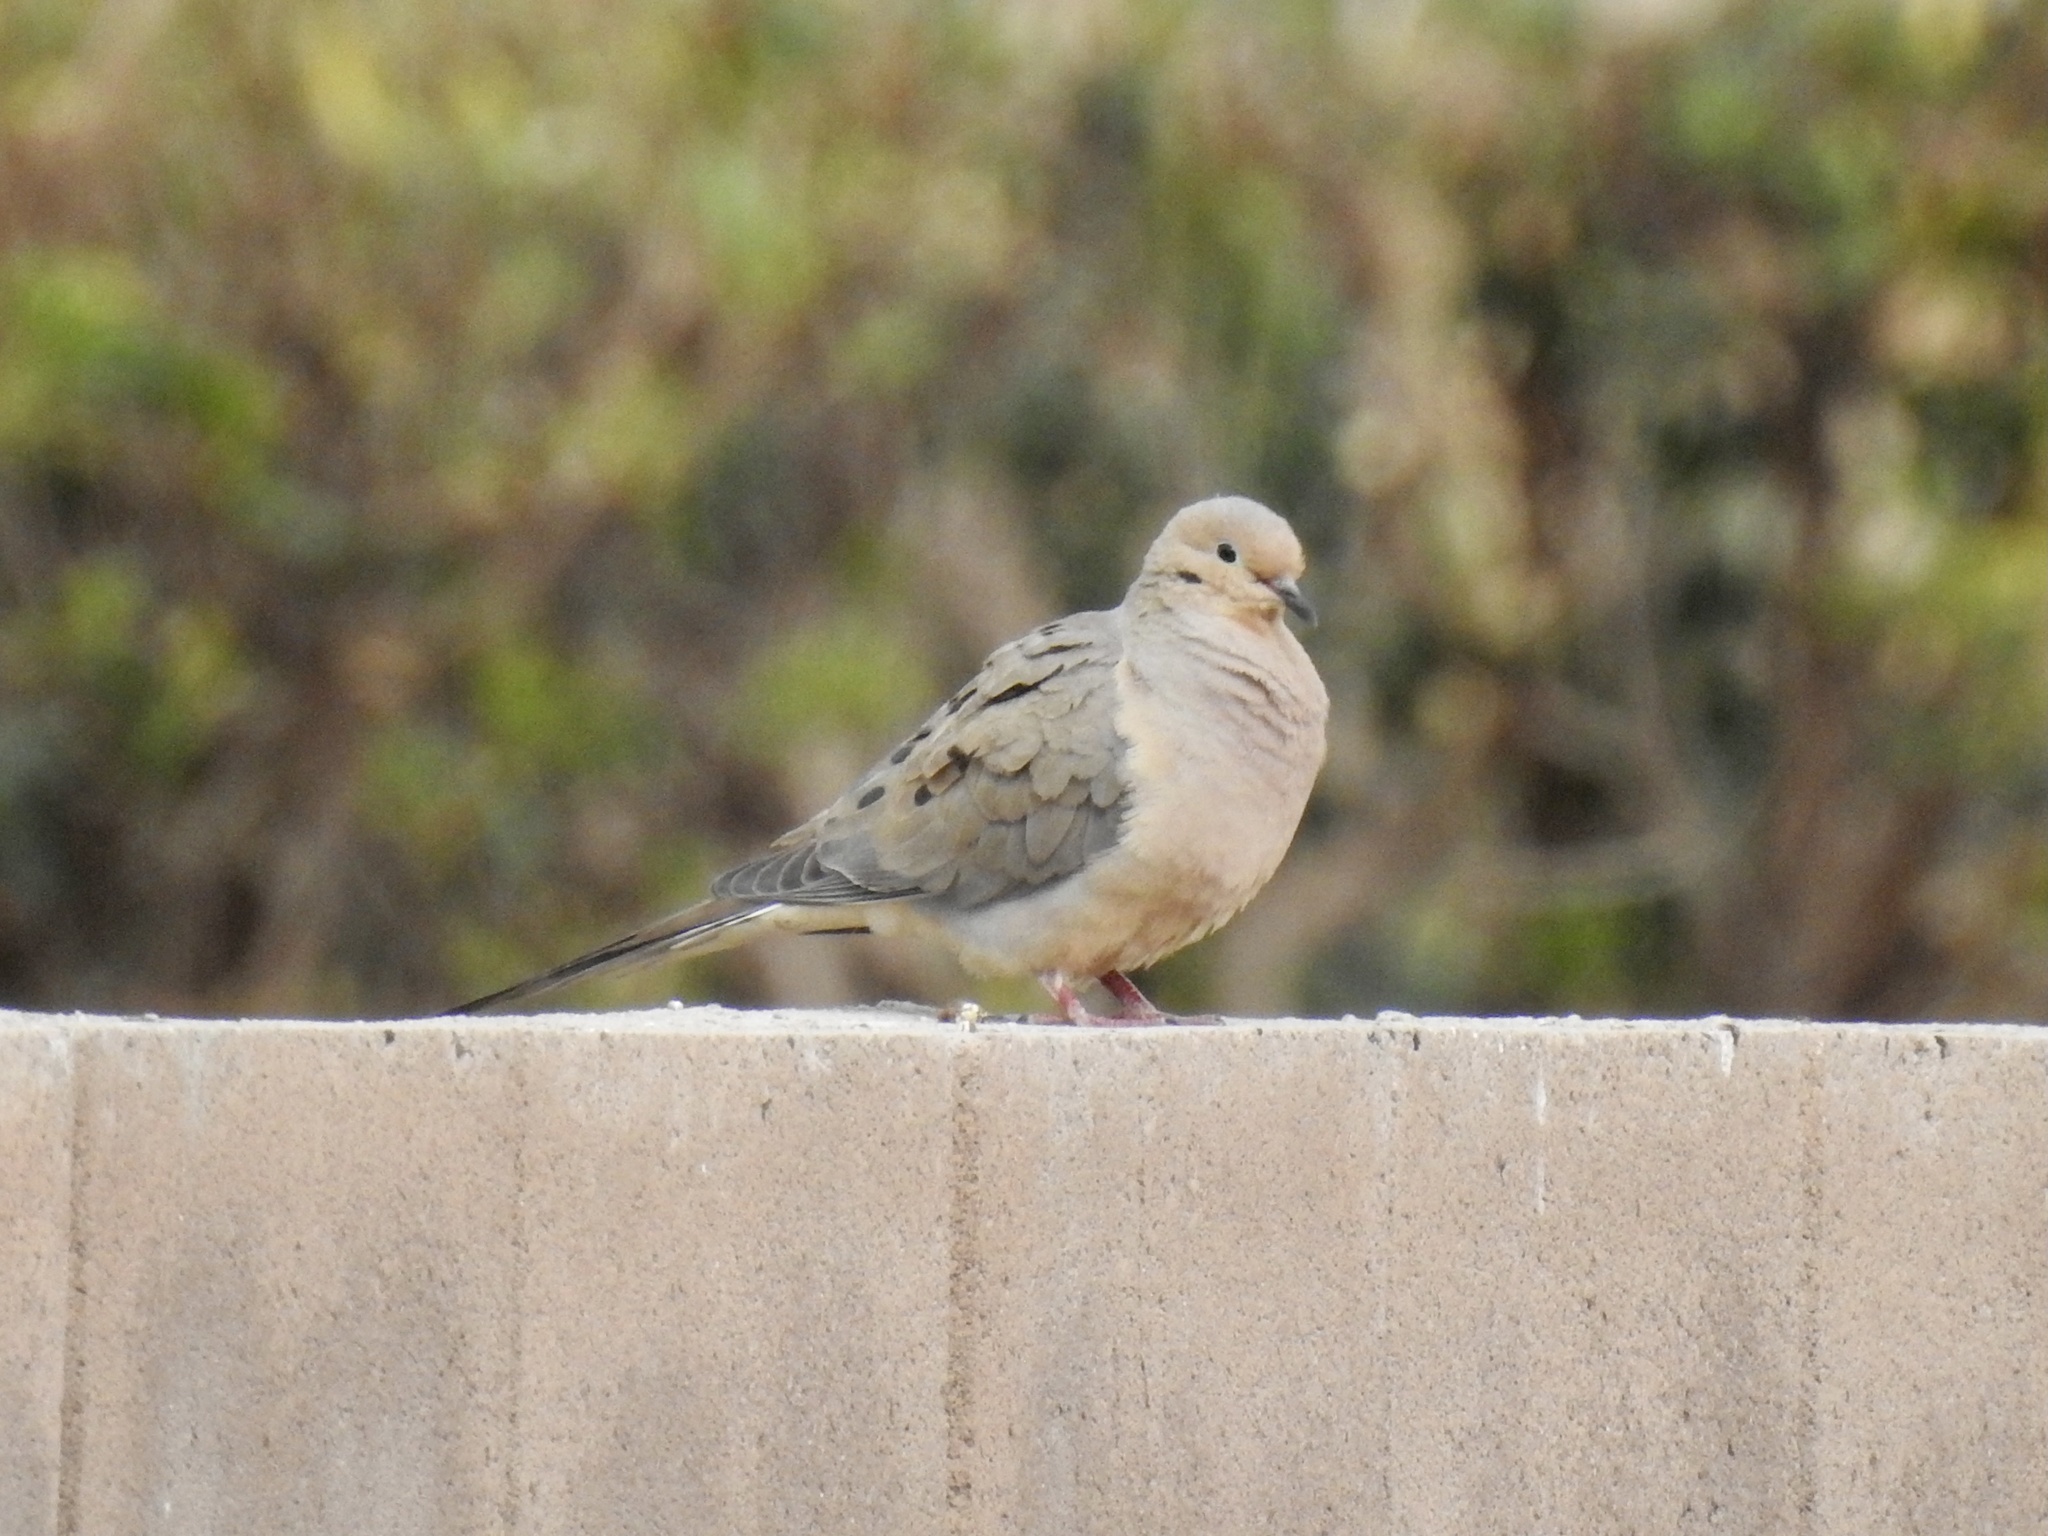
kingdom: Animalia
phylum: Chordata
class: Aves
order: Columbiformes
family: Columbidae
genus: Zenaida
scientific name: Zenaida macroura
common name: Mourning dove
